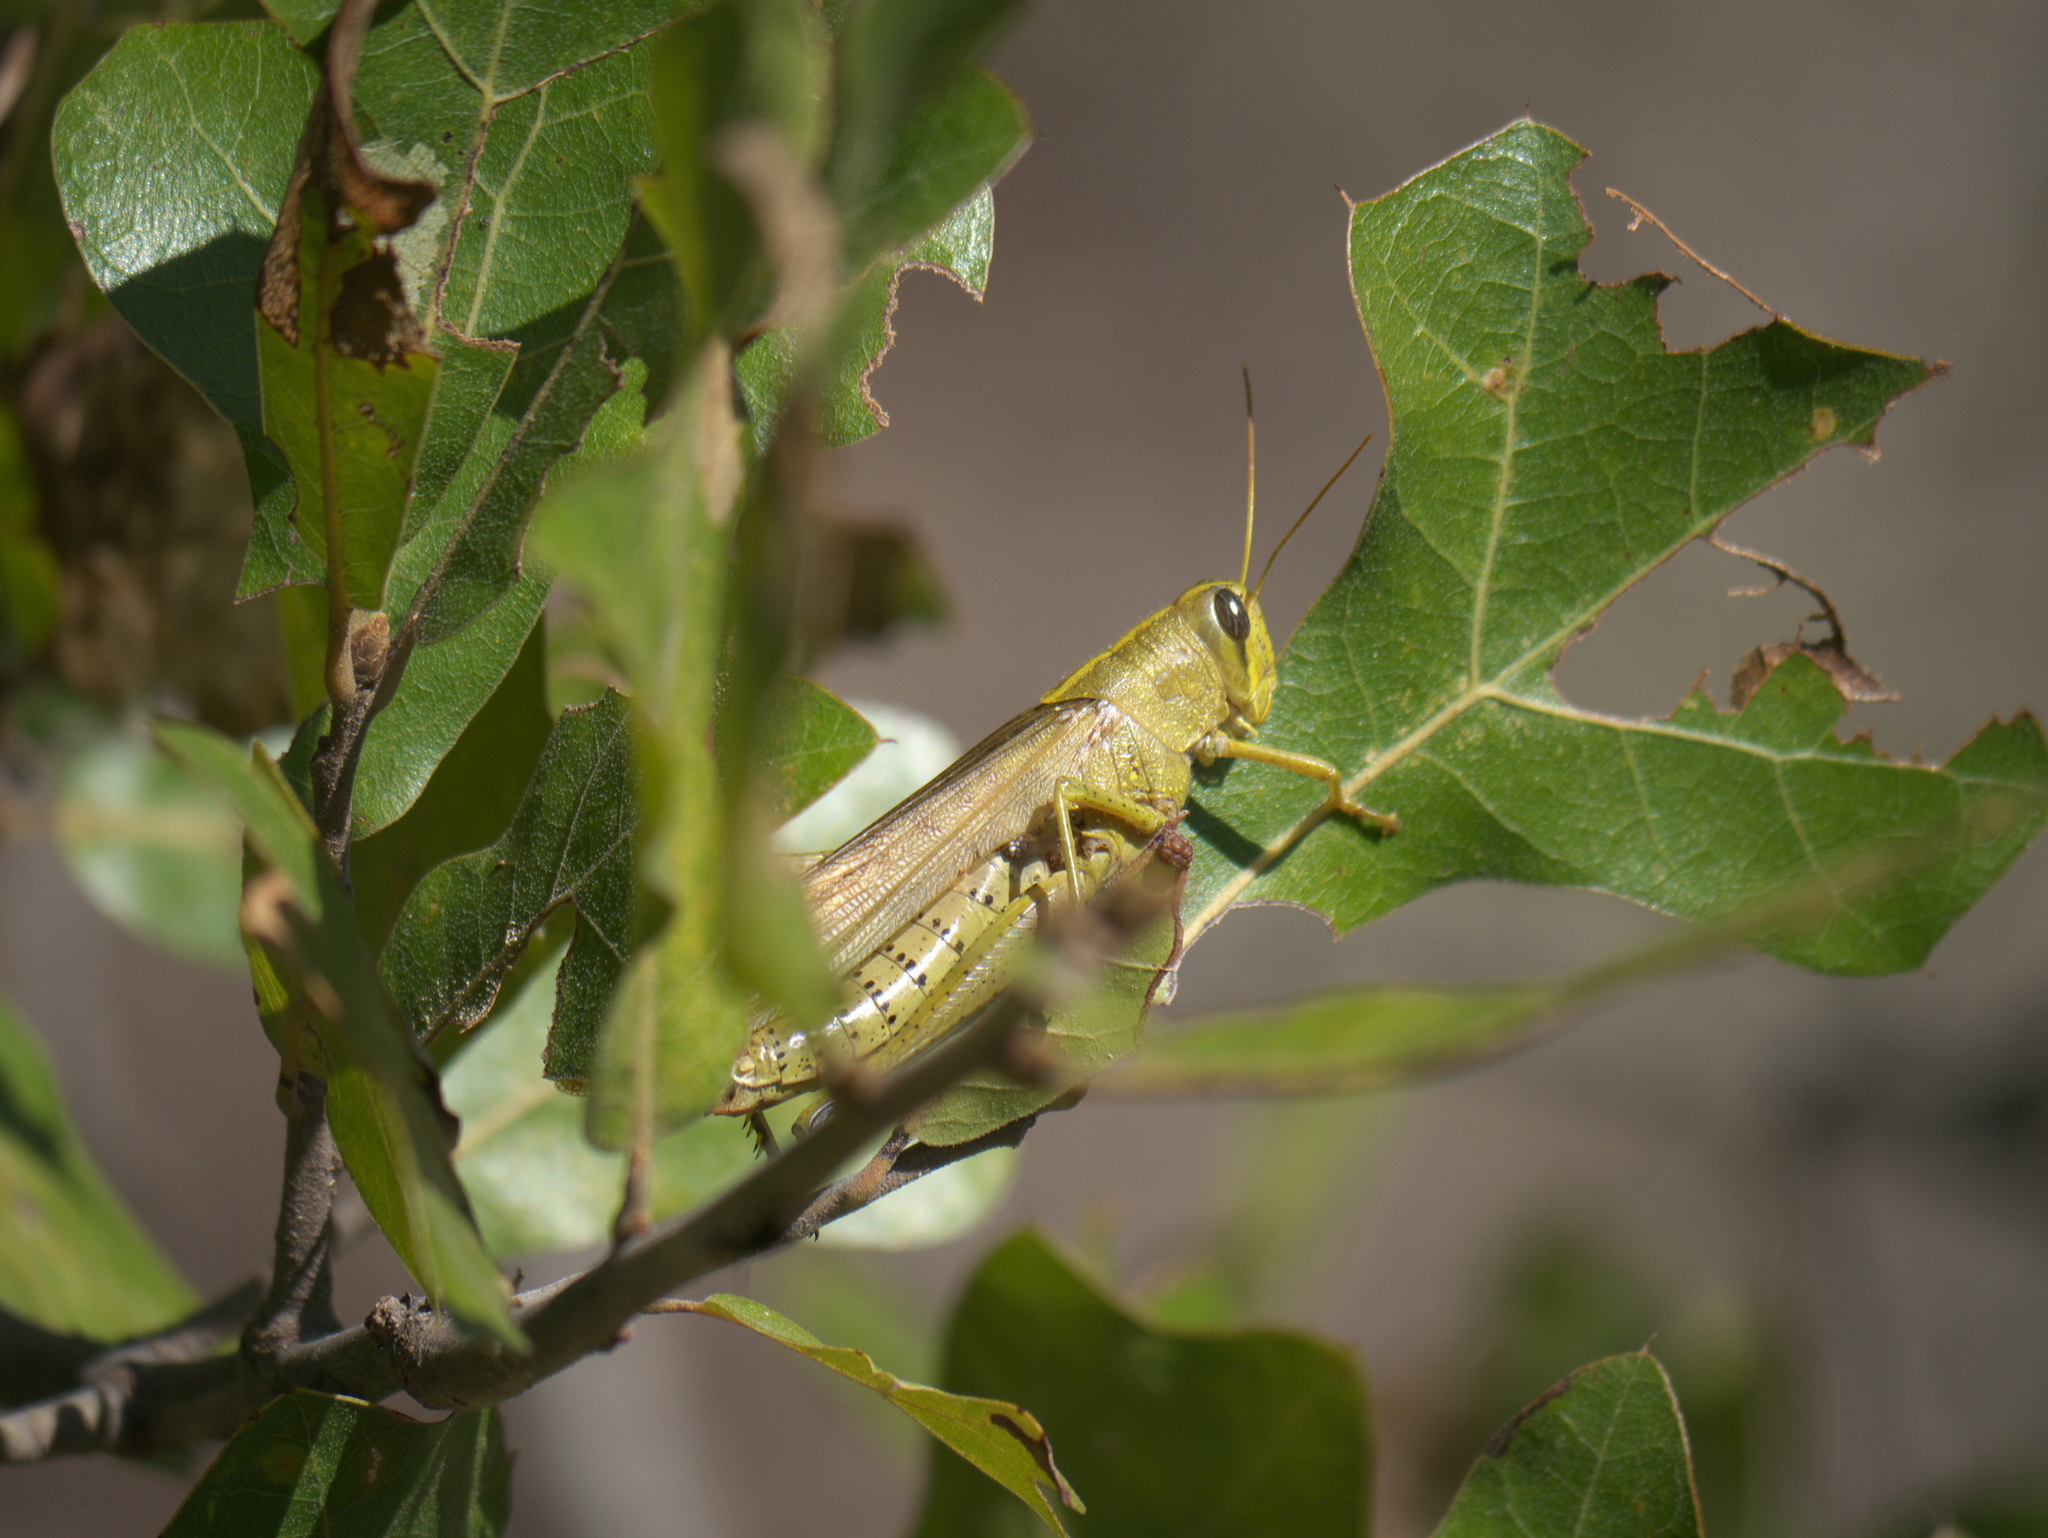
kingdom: Animalia
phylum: Arthropoda
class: Insecta
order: Orthoptera
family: Acrididae
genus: Schistocerca
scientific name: Schistocerca lineata
